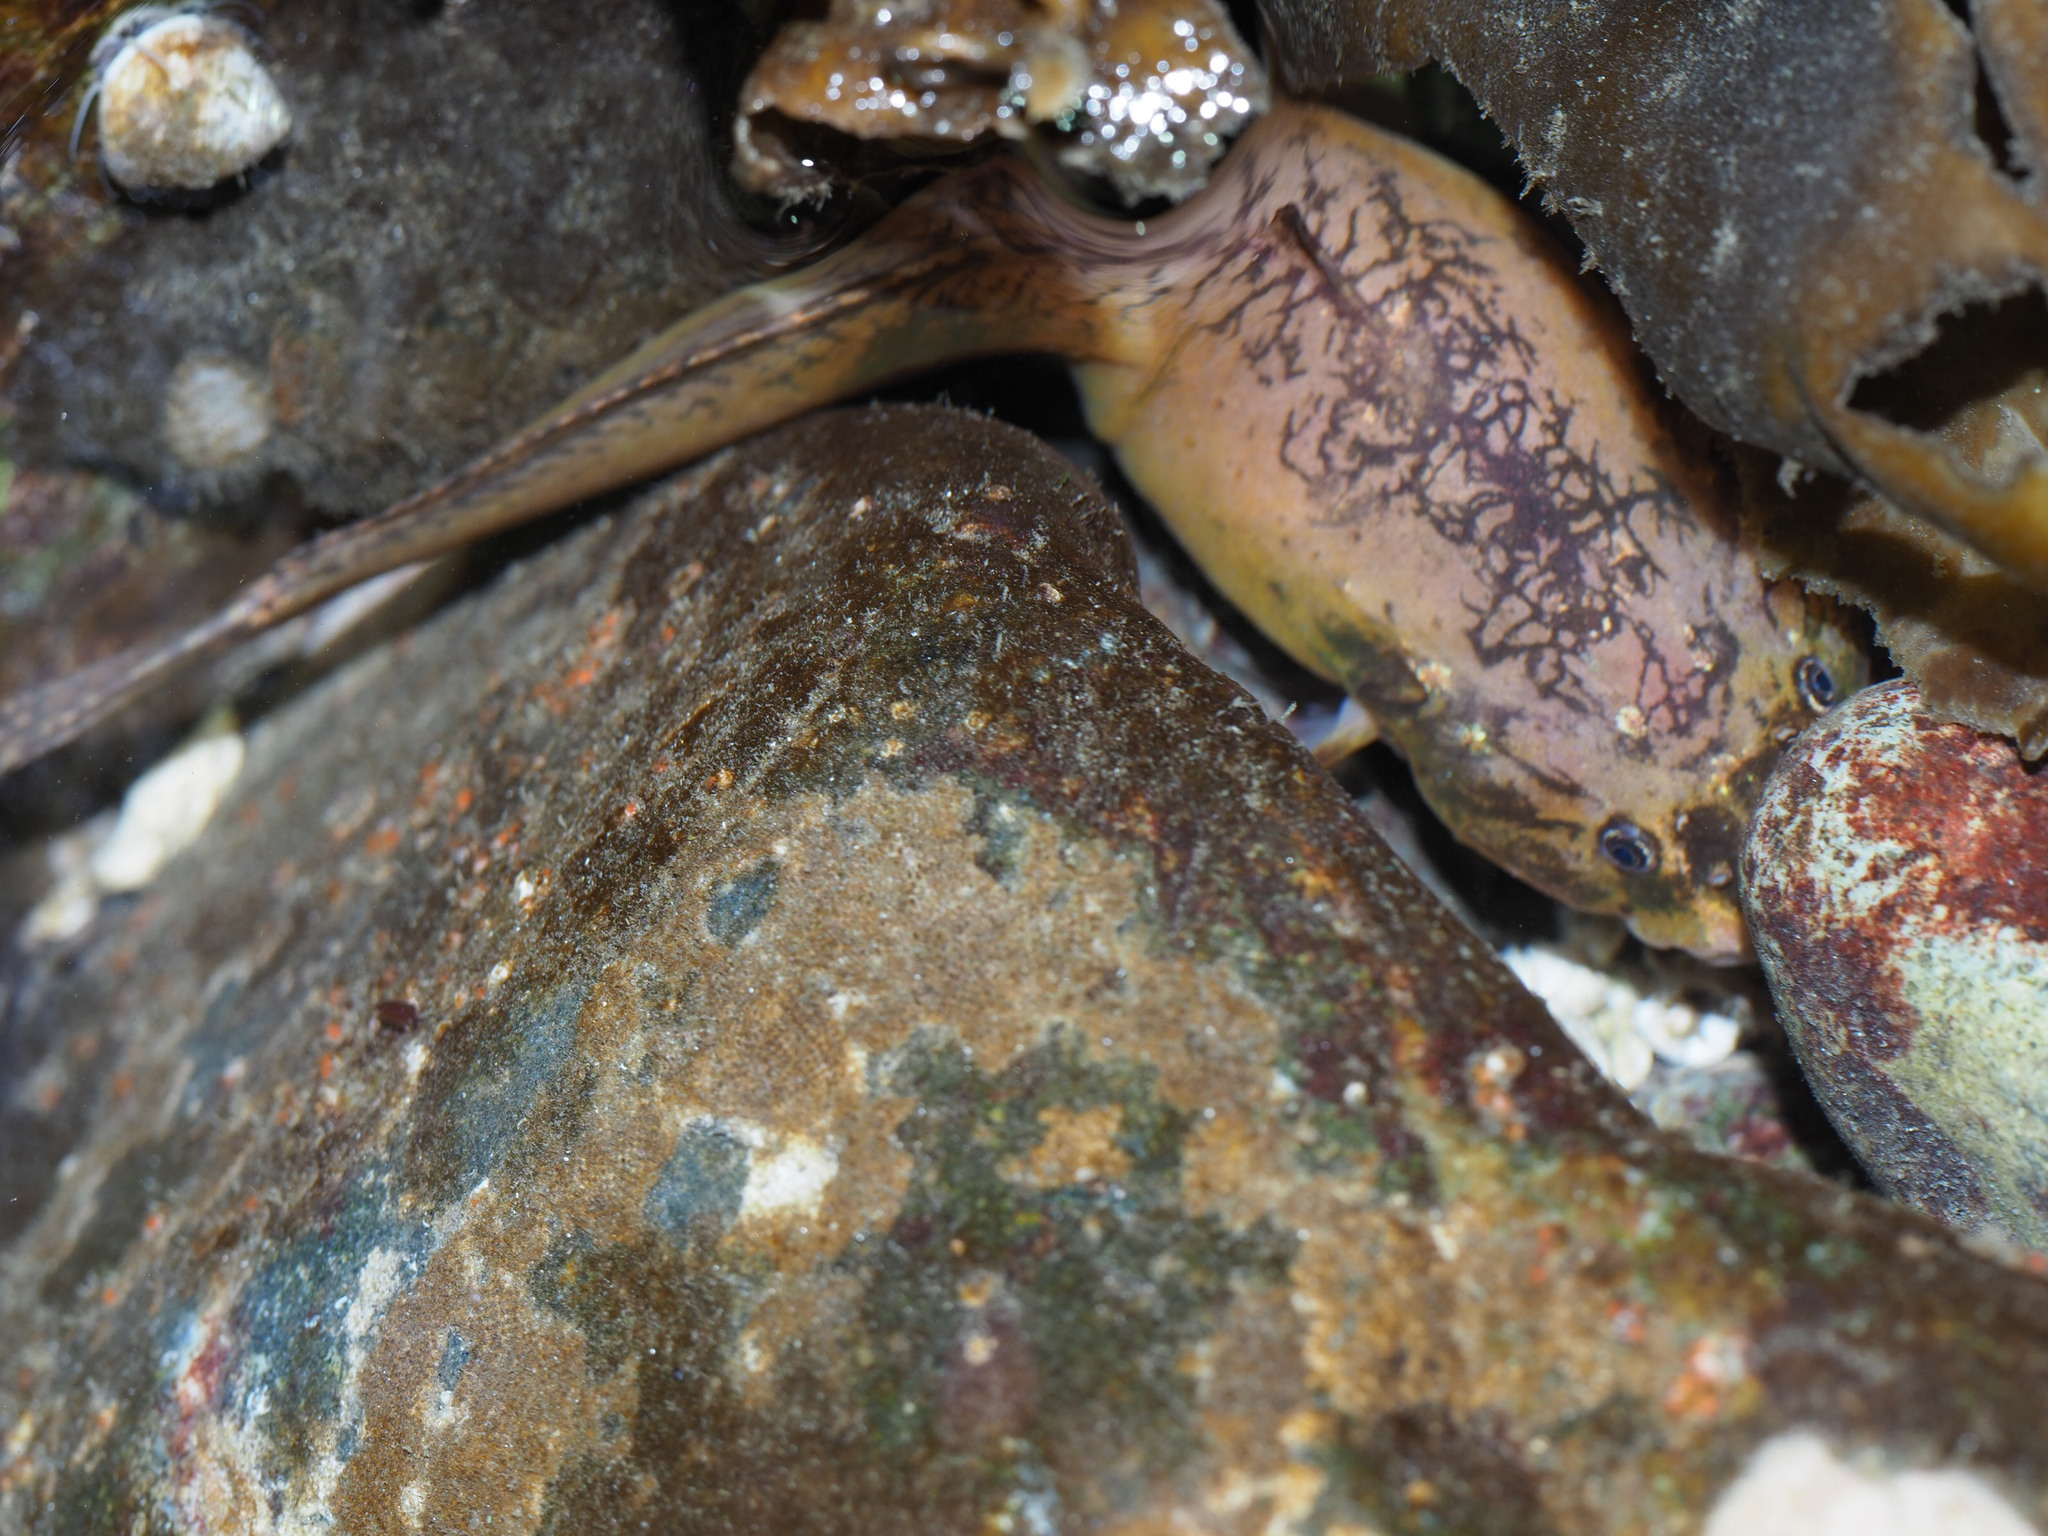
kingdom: Animalia
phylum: Chordata
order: Scorpaeniformes
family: Liparidae
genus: Liparis
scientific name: Liparis florae
